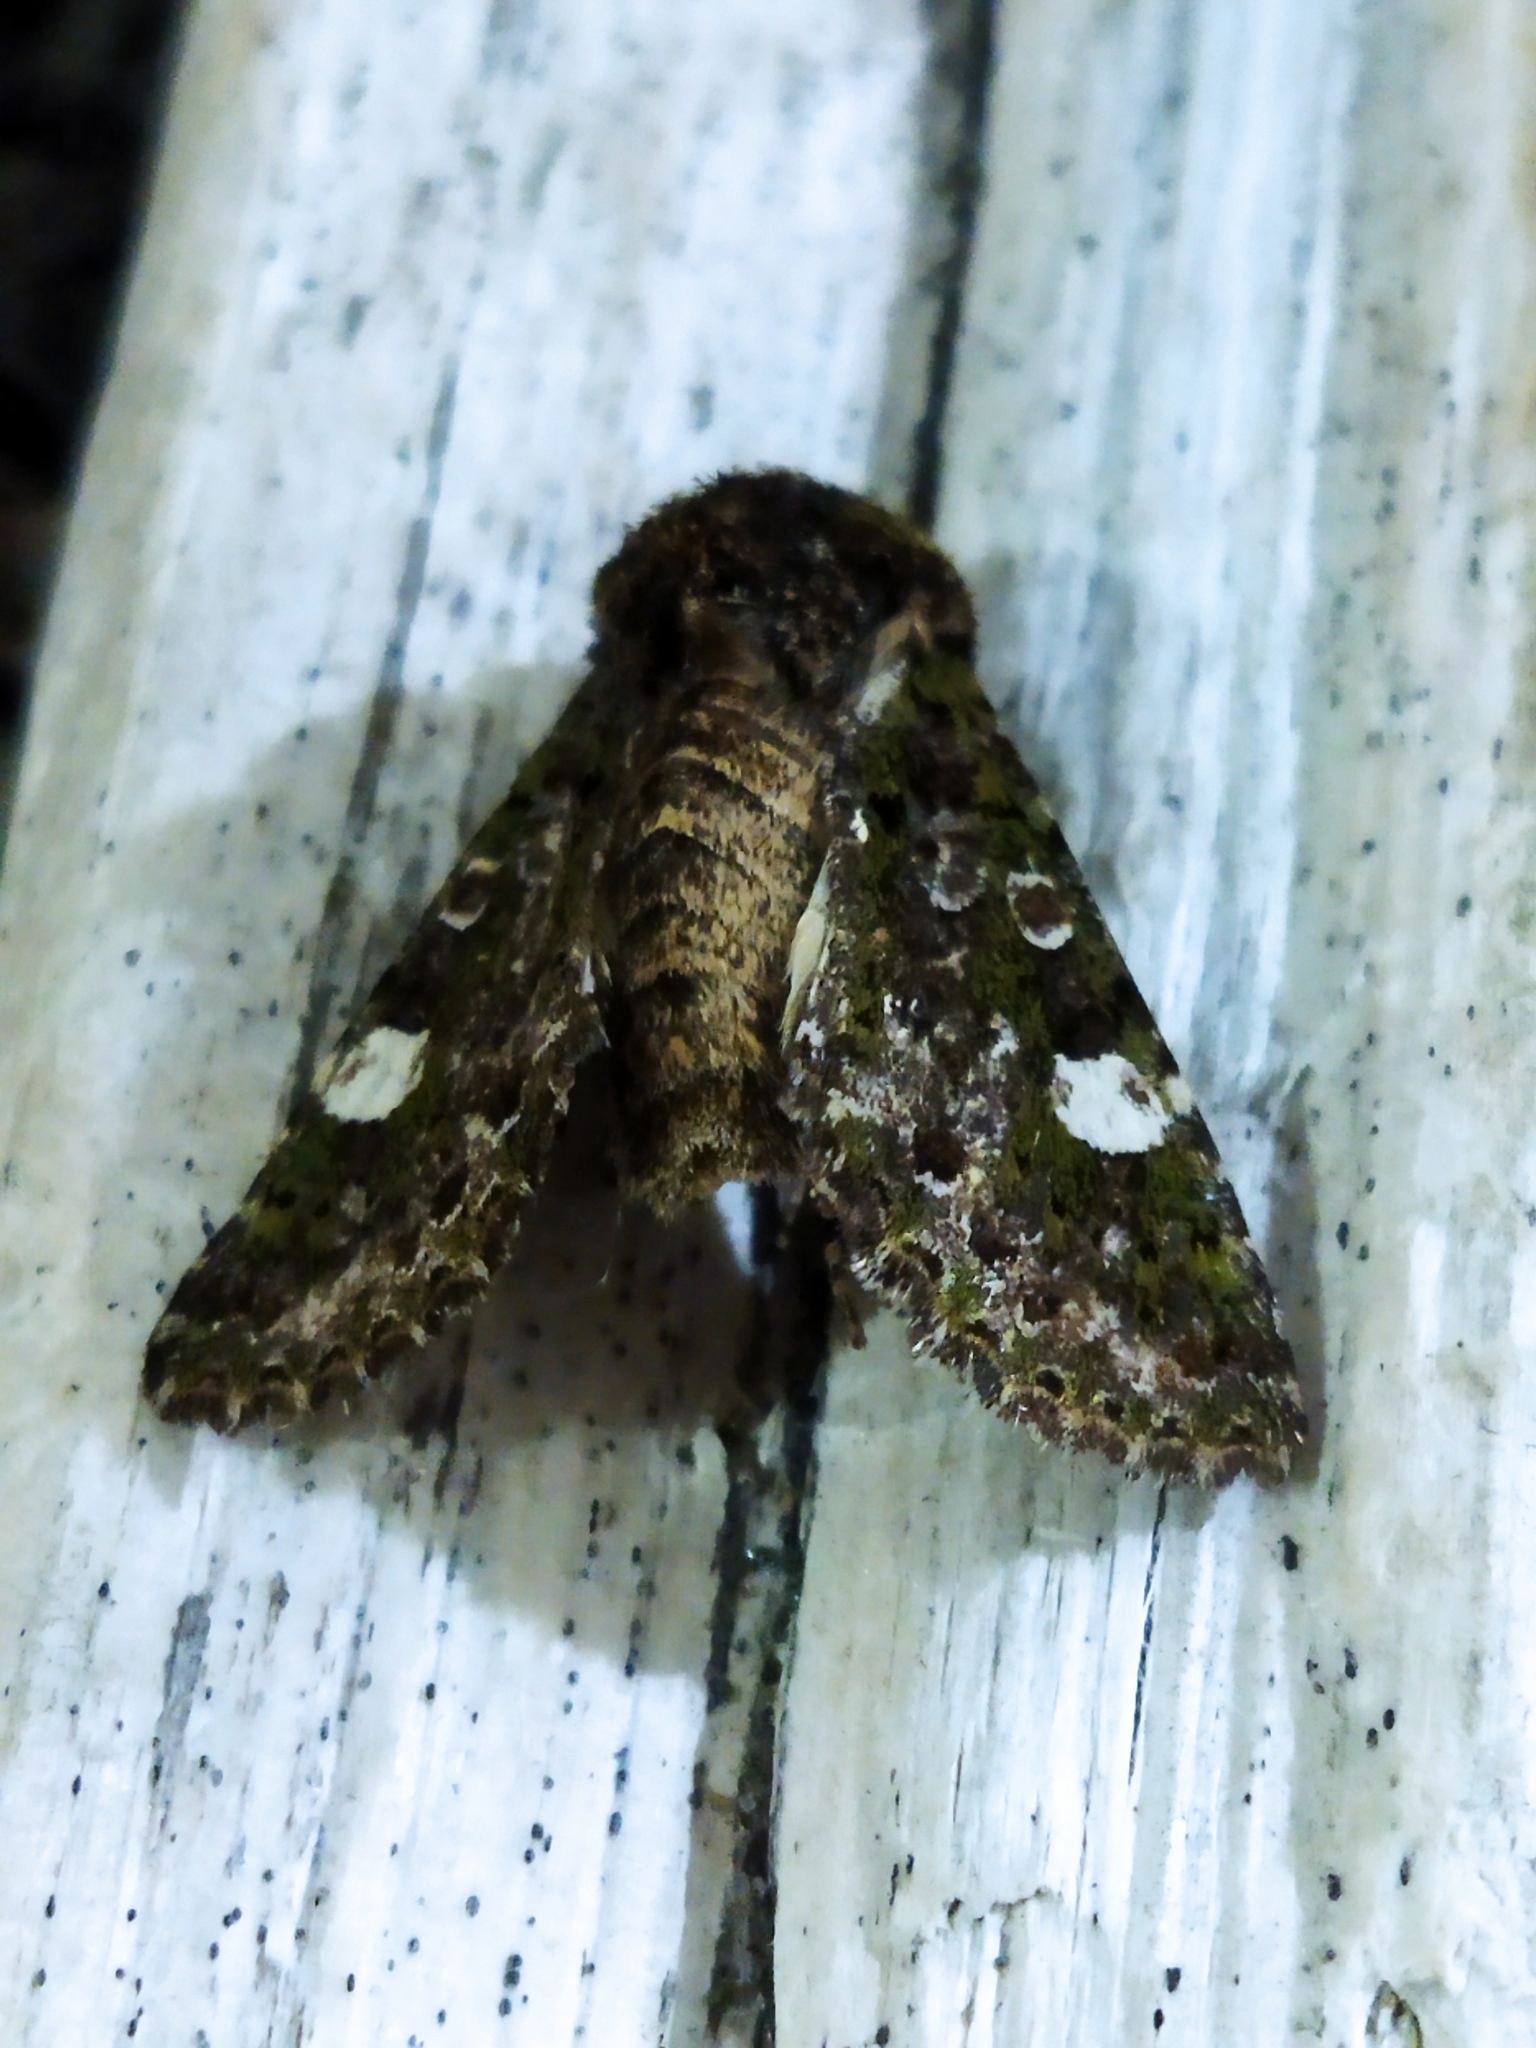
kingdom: Animalia
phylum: Arthropoda
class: Insecta
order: Lepidoptera
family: Noctuidae
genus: Valeria
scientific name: Valeria oleagina
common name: Green-brindled dot
